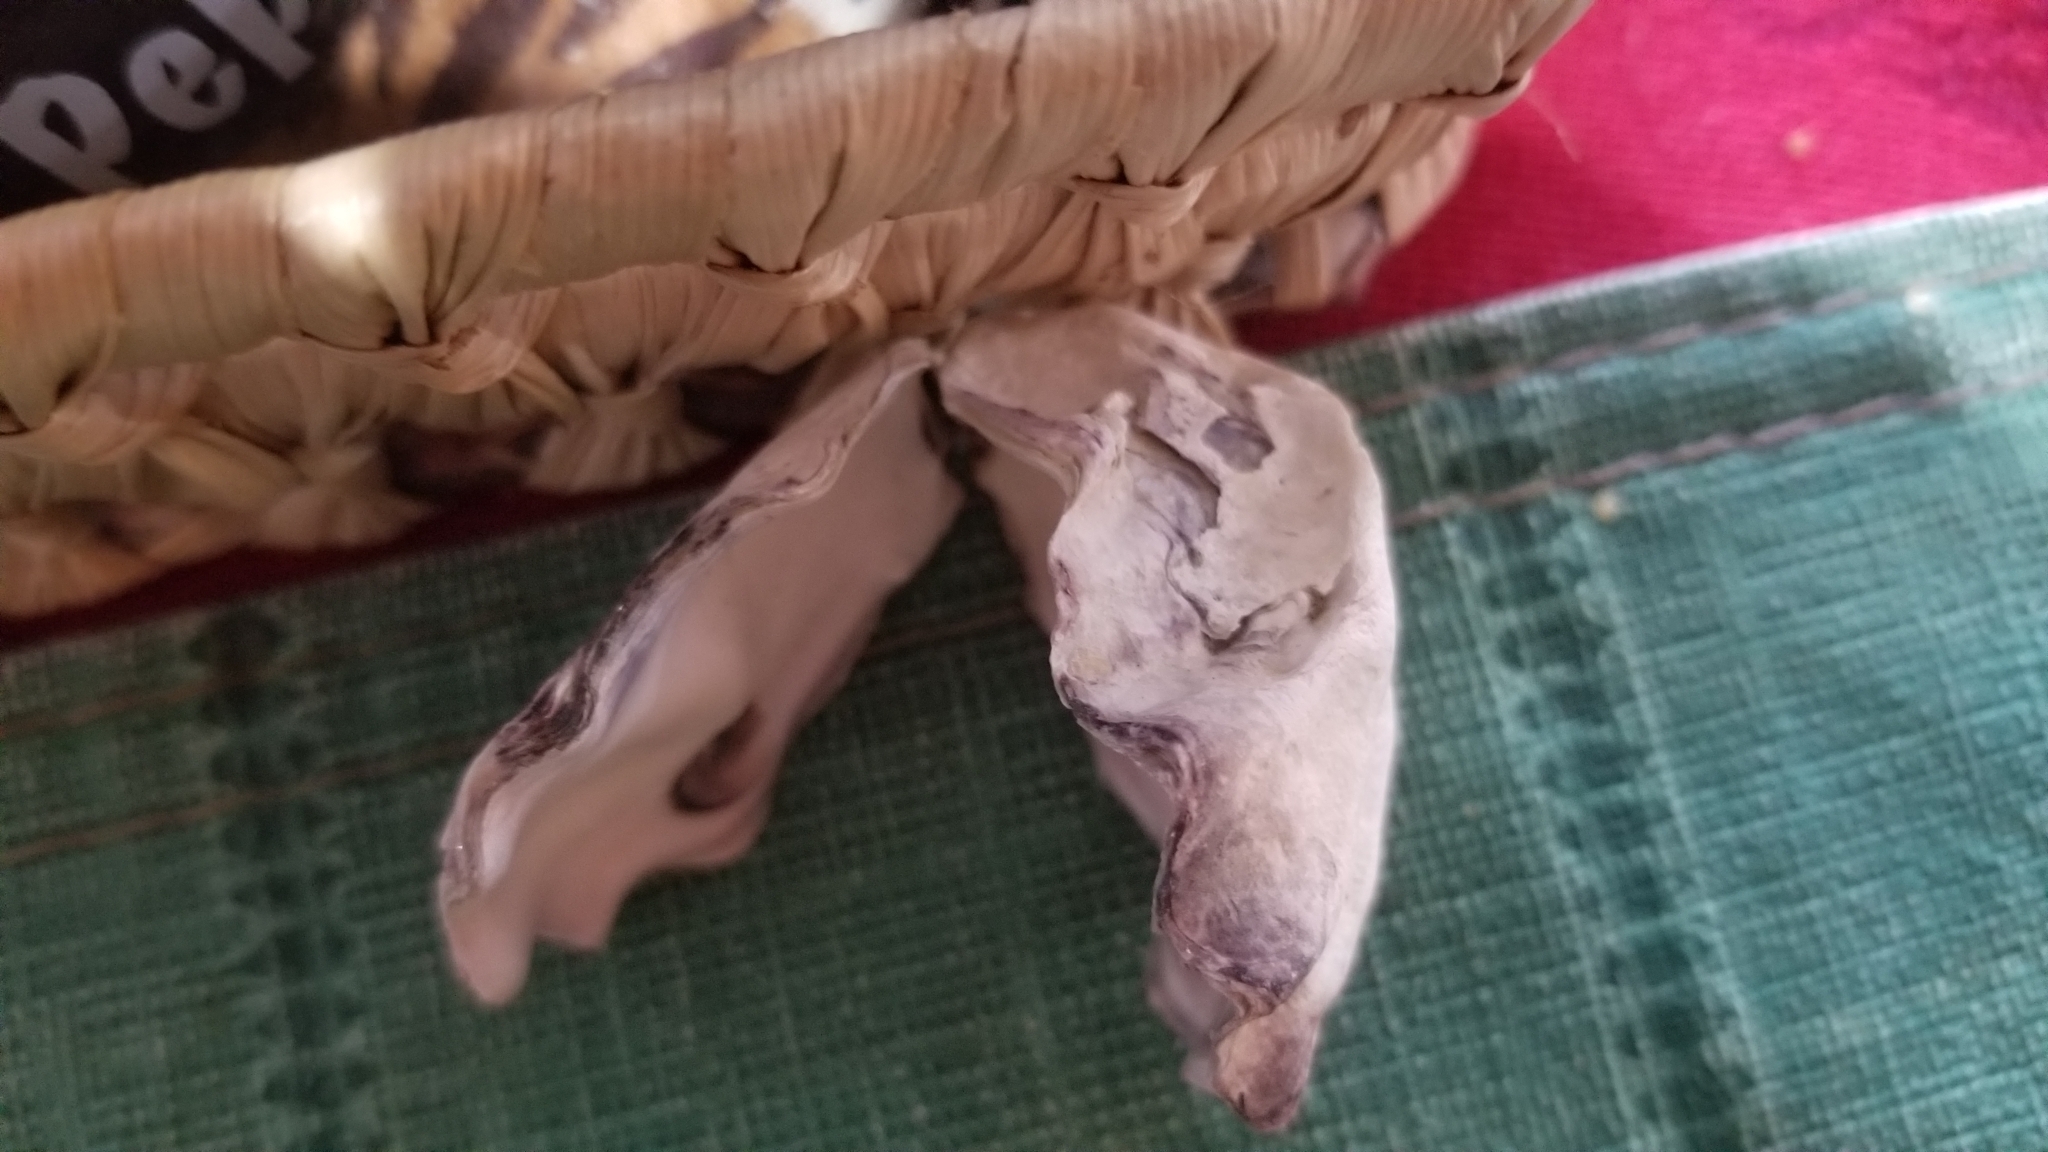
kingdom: Animalia
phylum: Mollusca
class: Bivalvia
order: Ostreida
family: Ostreidae
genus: Magallana
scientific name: Magallana gigas
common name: Pacific oyster
